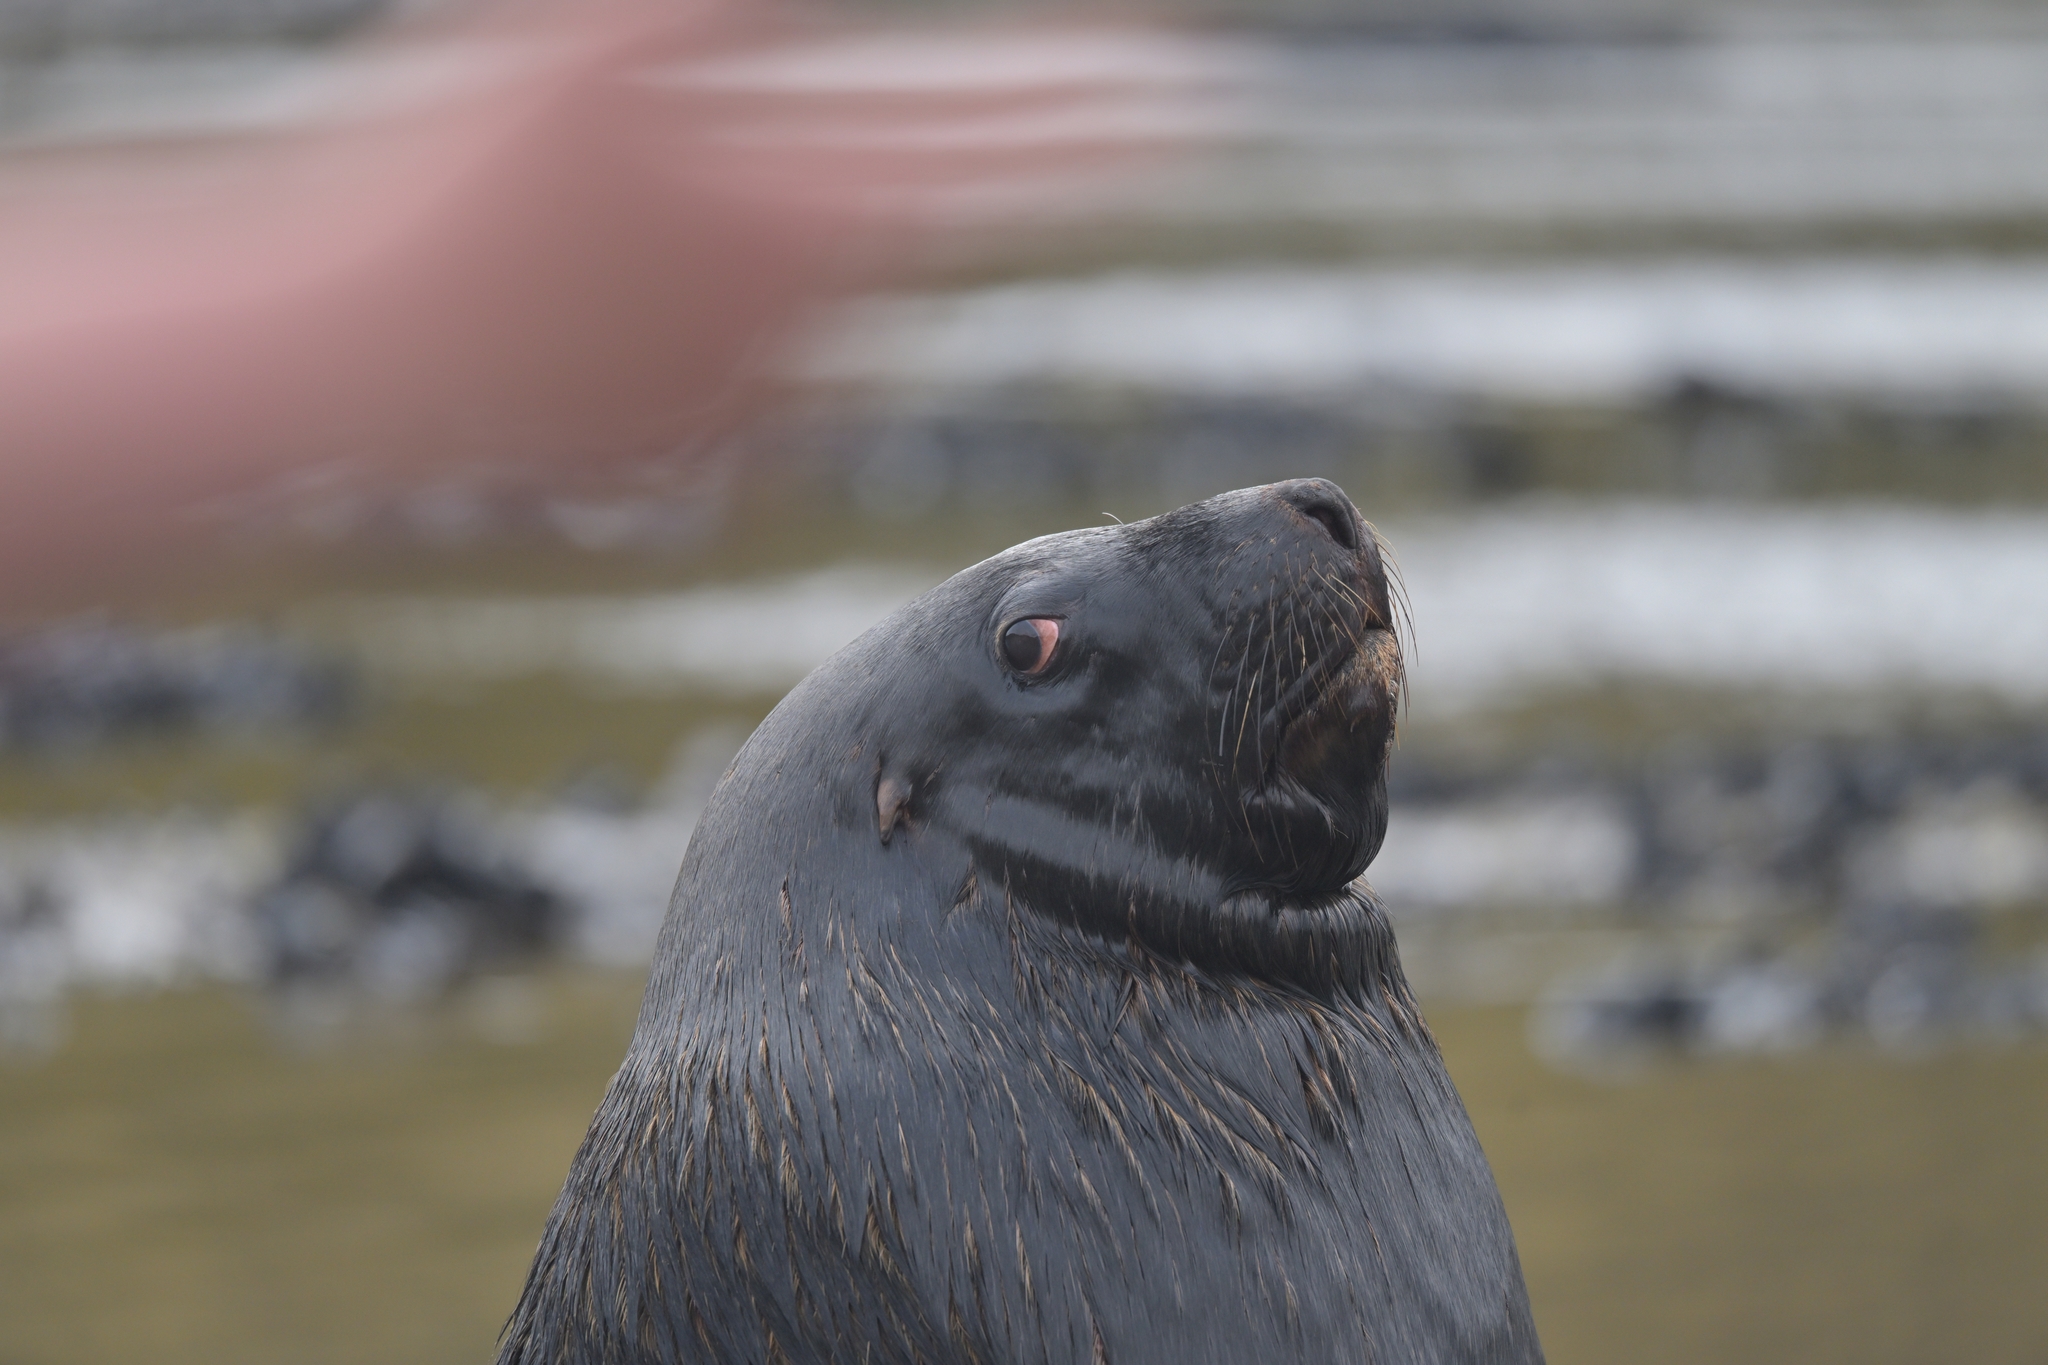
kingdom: Animalia
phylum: Chordata
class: Mammalia
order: Carnivora
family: Otariidae
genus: Phocarctos
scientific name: Phocarctos hookeri
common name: New zealand sea lion
